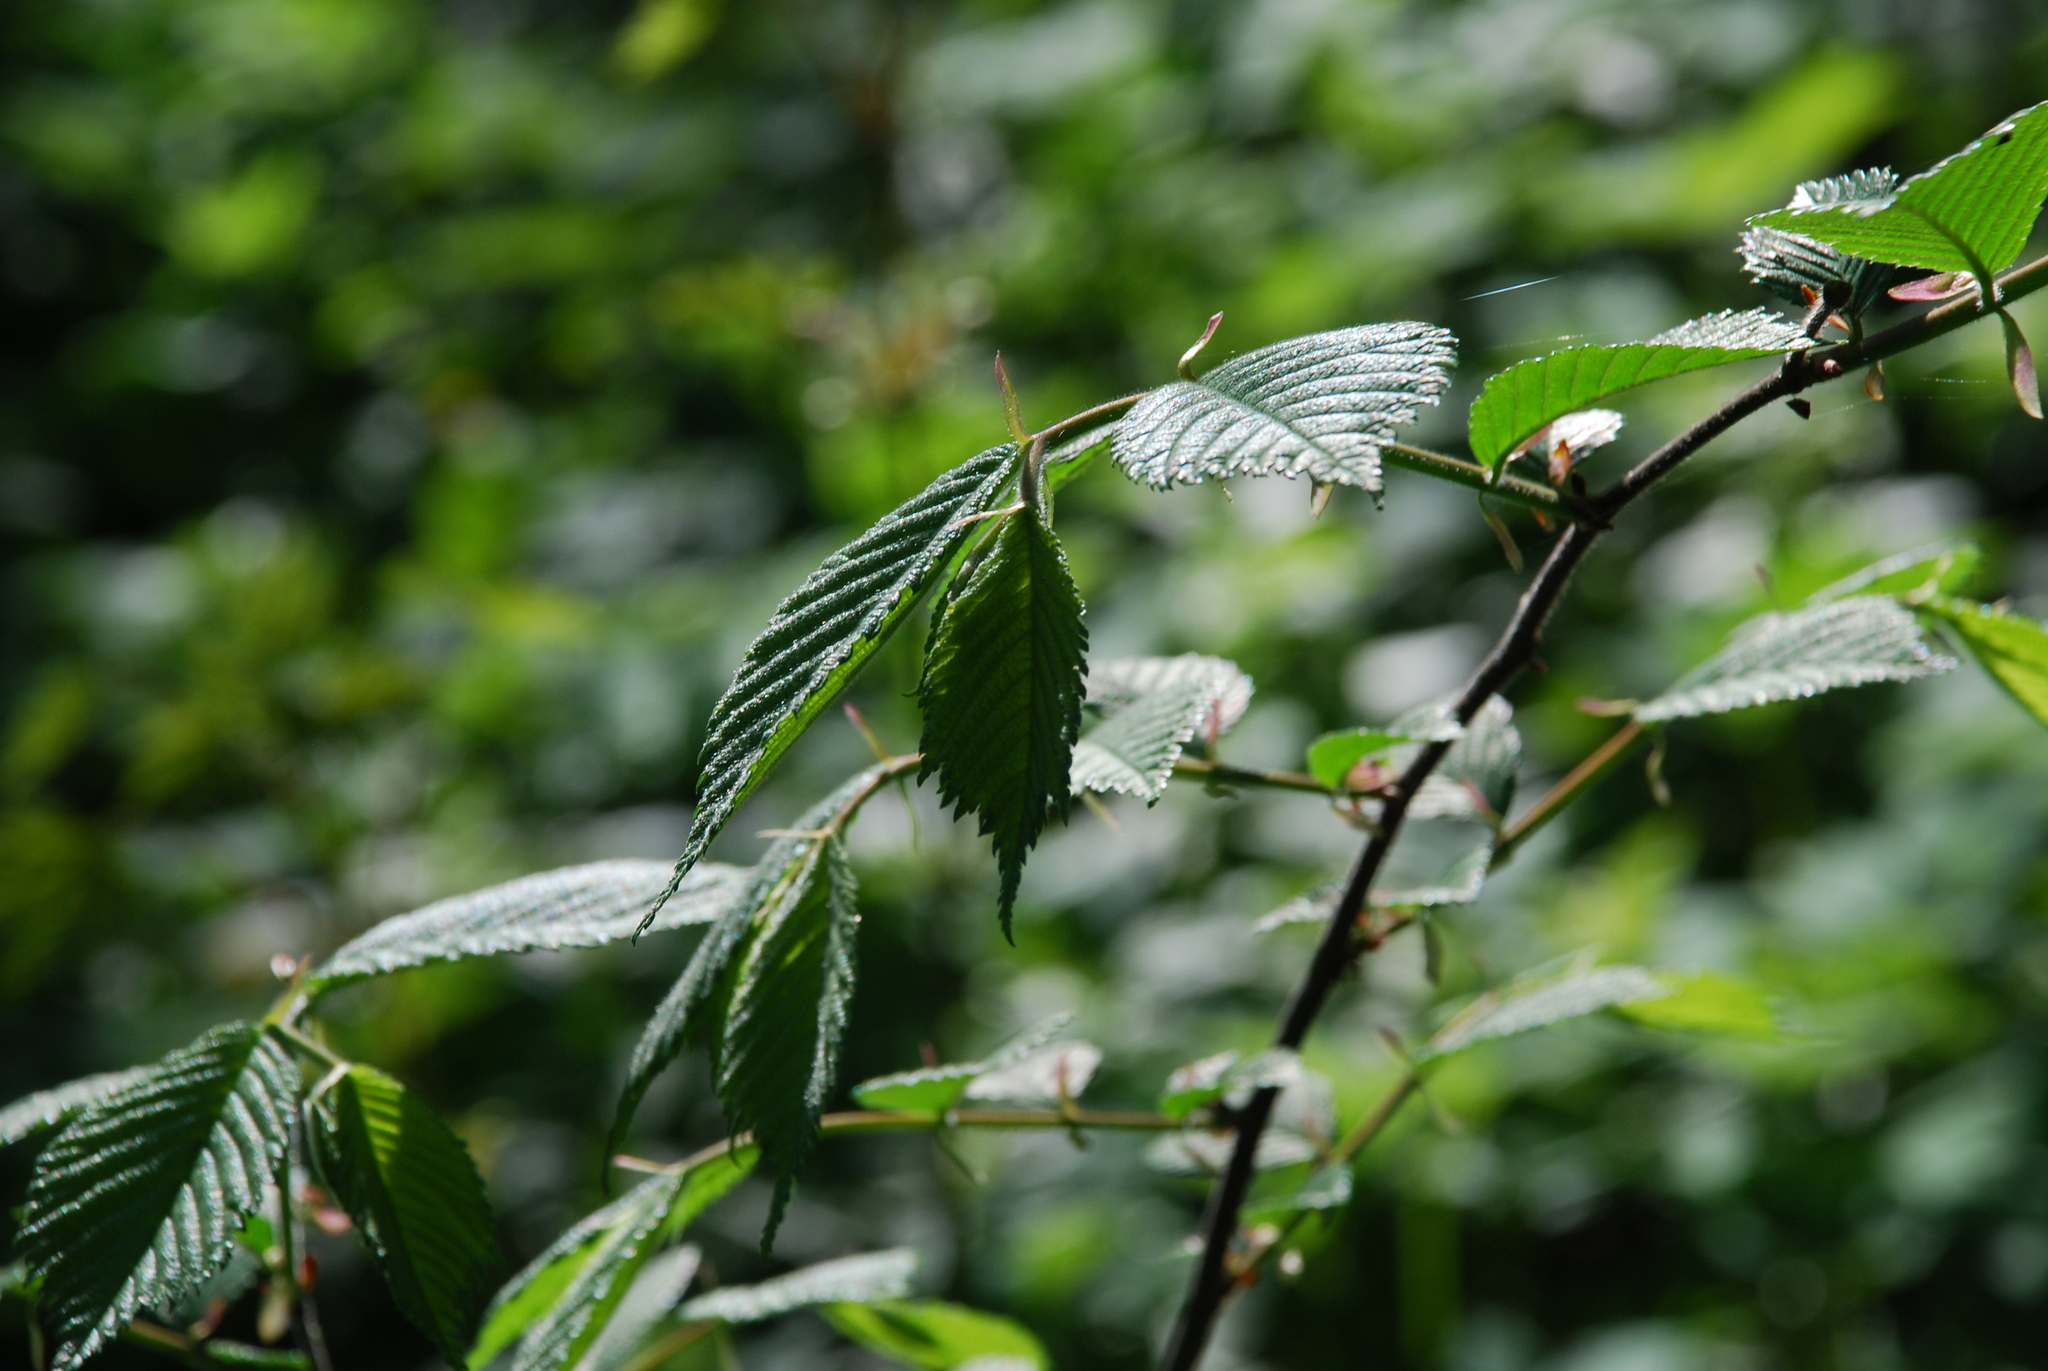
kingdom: Plantae
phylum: Tracheophyta
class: Magnoliopsida
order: Rosales
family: Ulmaceae
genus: Ulmus
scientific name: Ulmus glabra
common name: Wych elm
